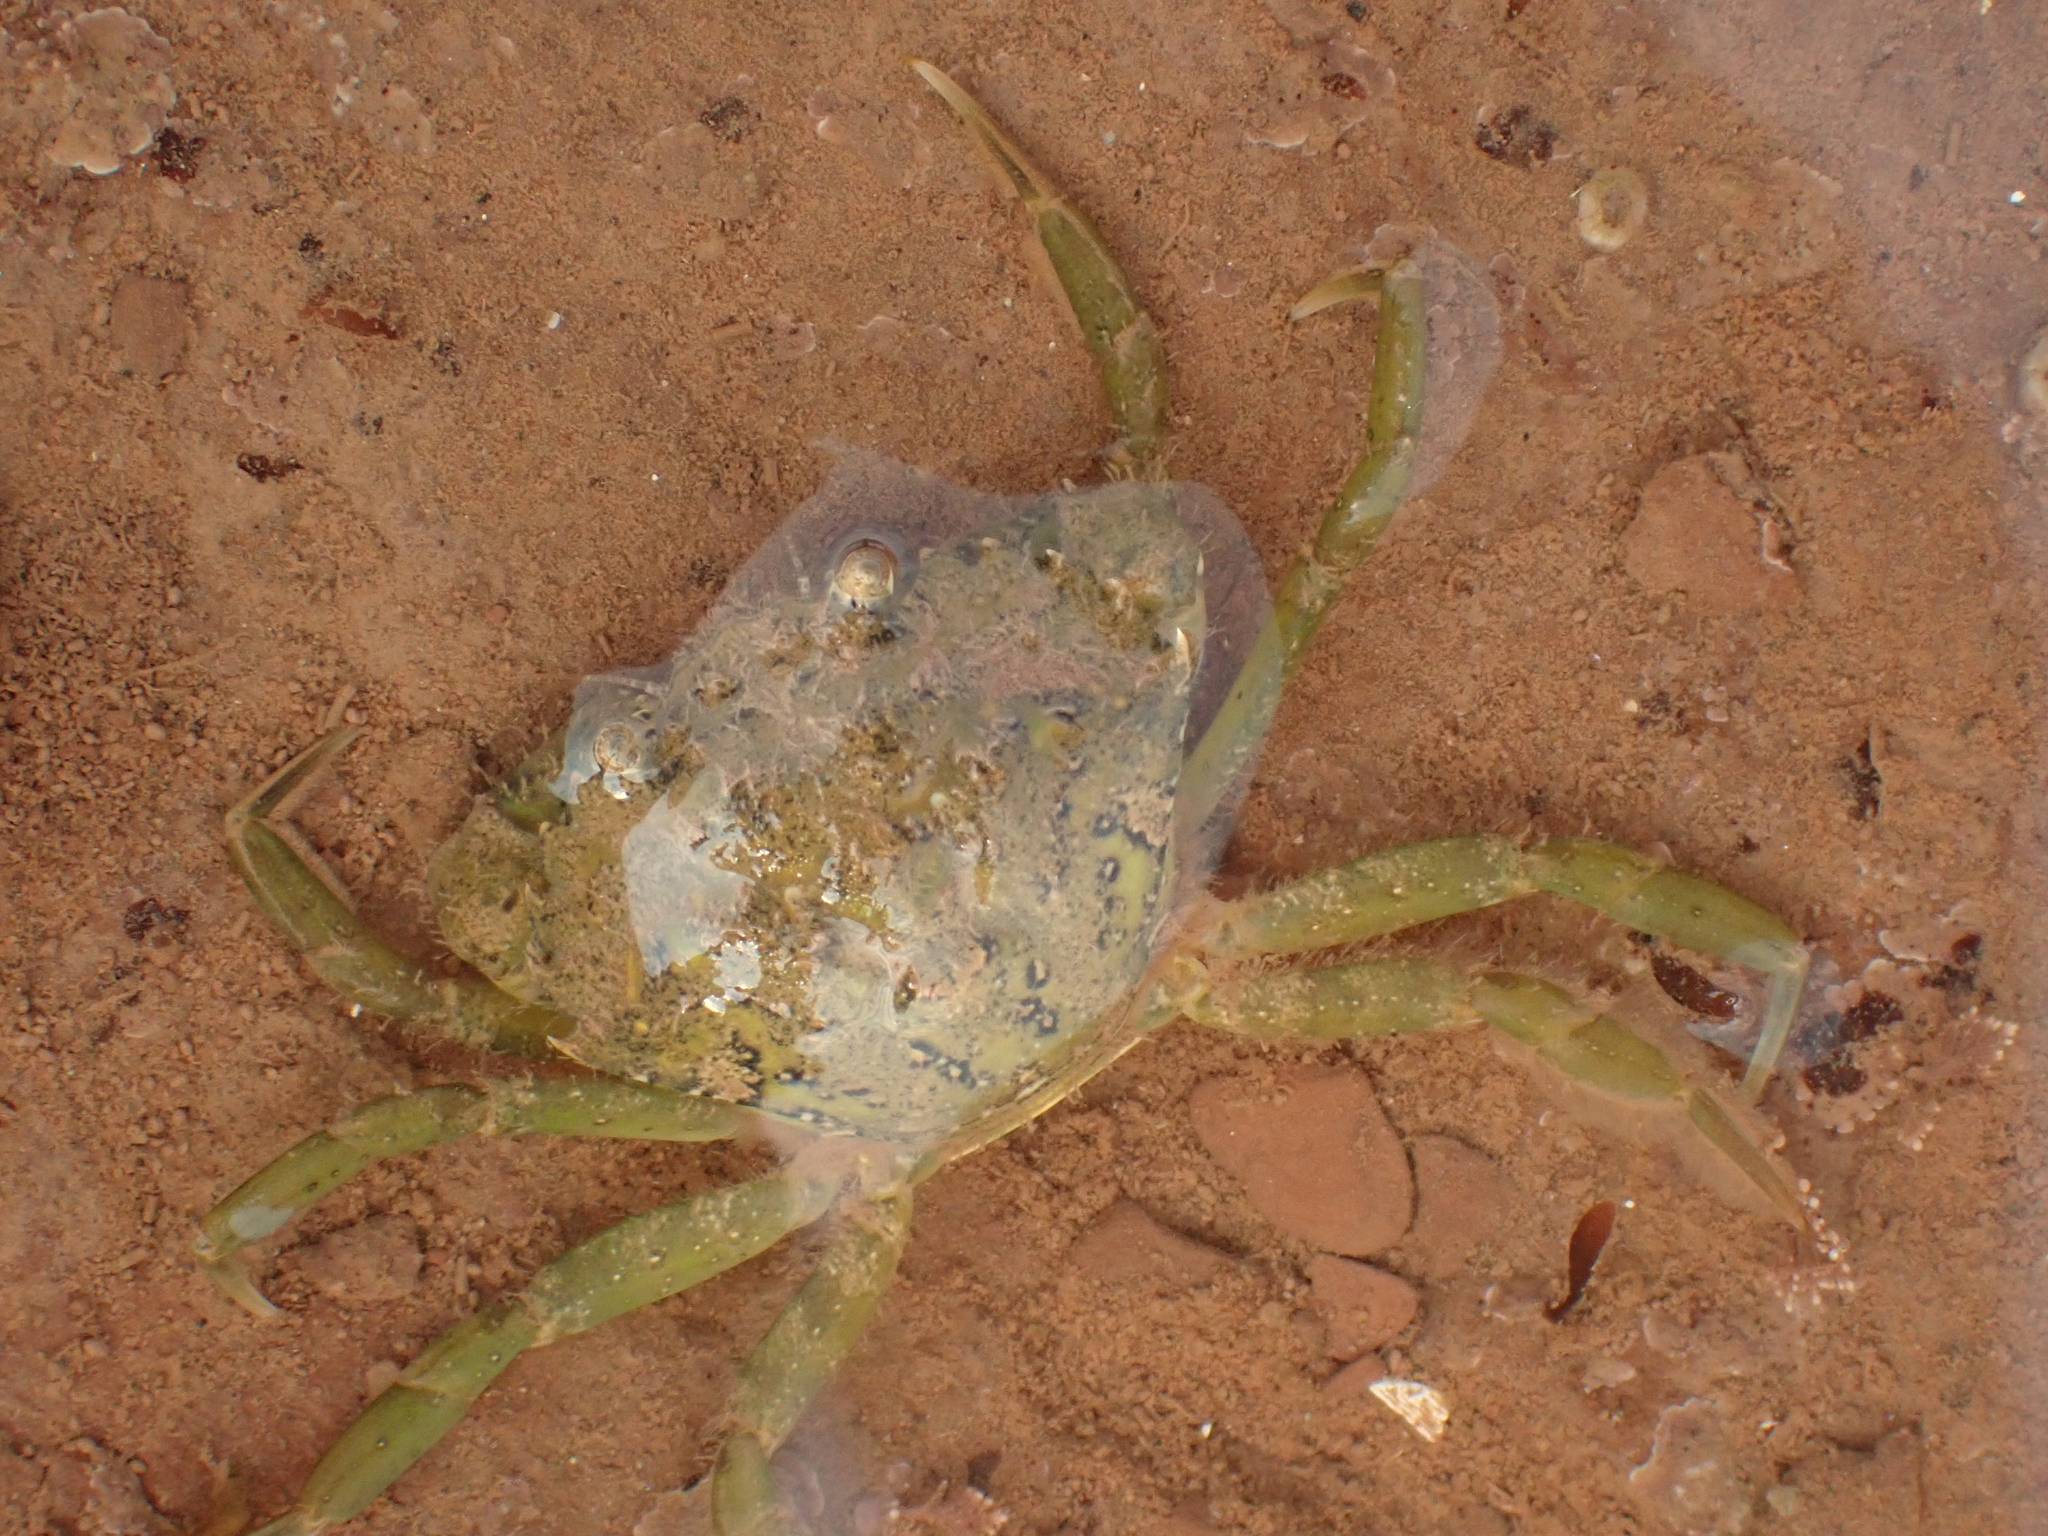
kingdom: Animalia
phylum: Arthropoda
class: Malacostraca
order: Decapoda
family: Carcinidae
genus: Carcinus
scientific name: Carcinus maenas
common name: European green crab
